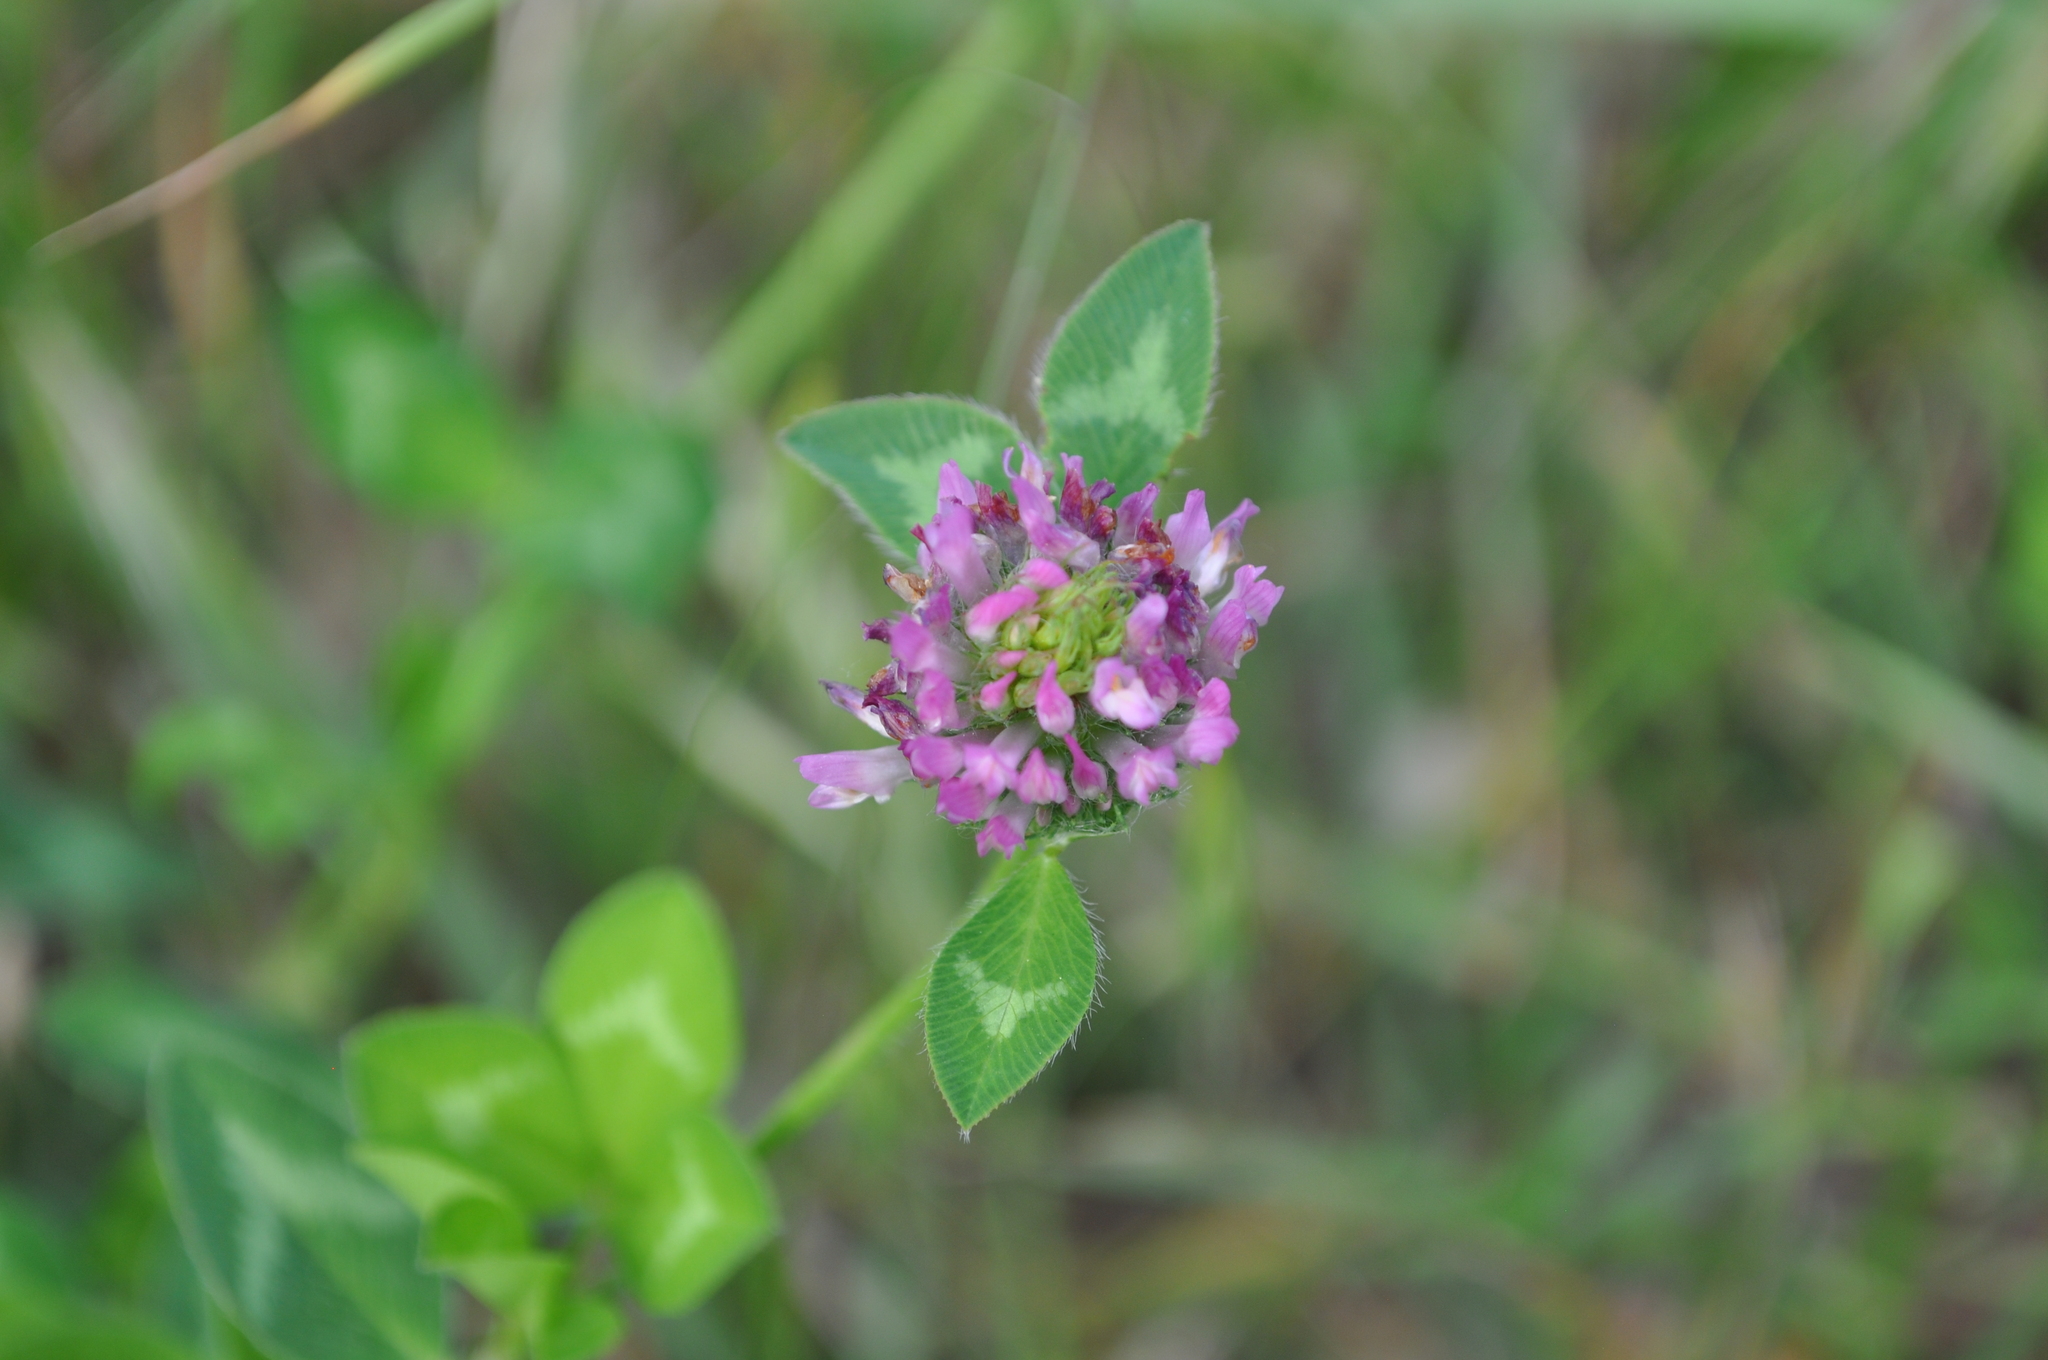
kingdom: Plantae
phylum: Tracheophyta
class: Magnoliopsida
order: Fabales
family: Fabaceae
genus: Trifolium
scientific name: Trifolium pratense
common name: Red clover
